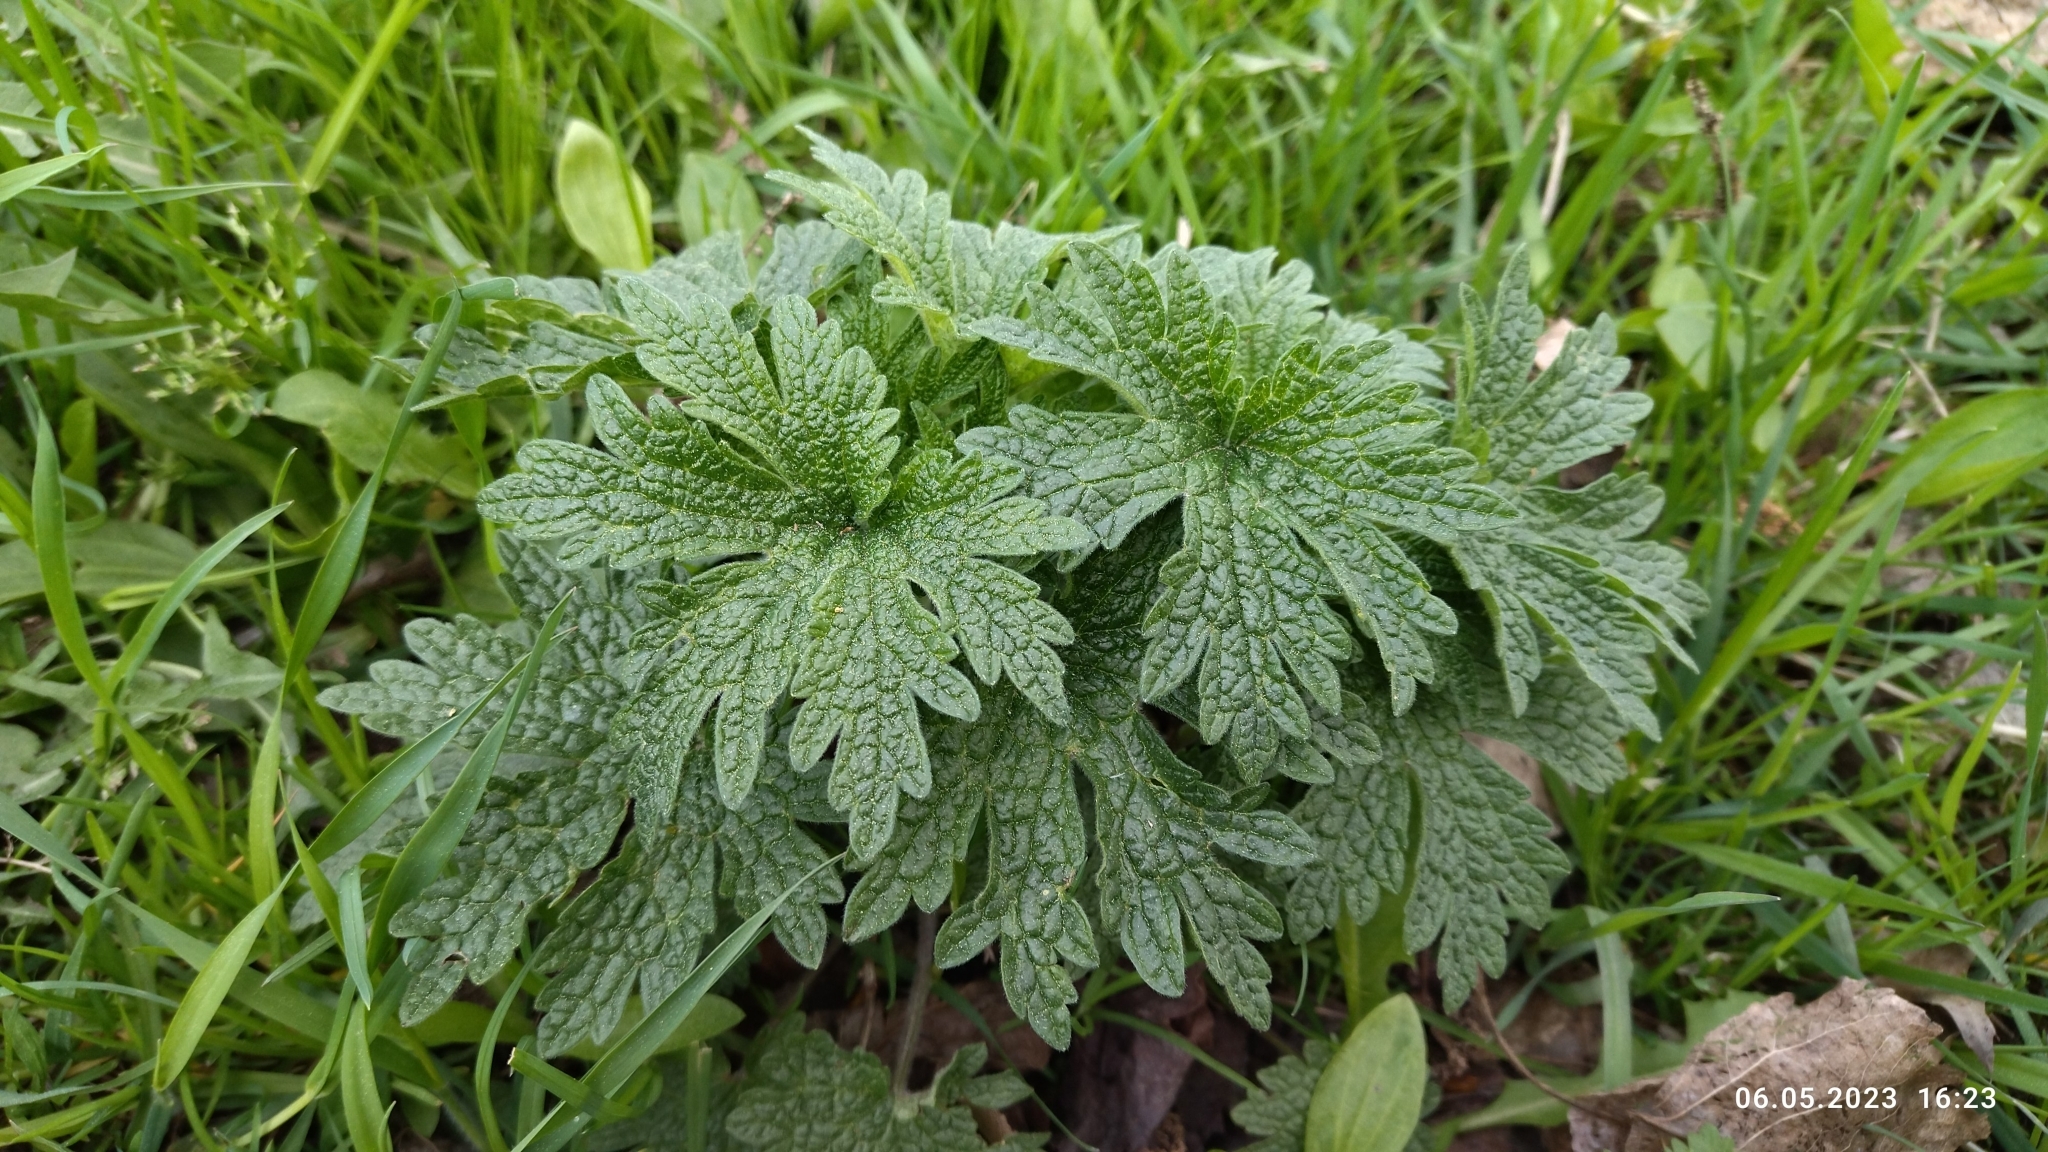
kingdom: Plantae
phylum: Tracheophyta
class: Magnoliopsida
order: Lamiales
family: Lamiaceae
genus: Leonurus
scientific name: Leonurus quinquelobatus
